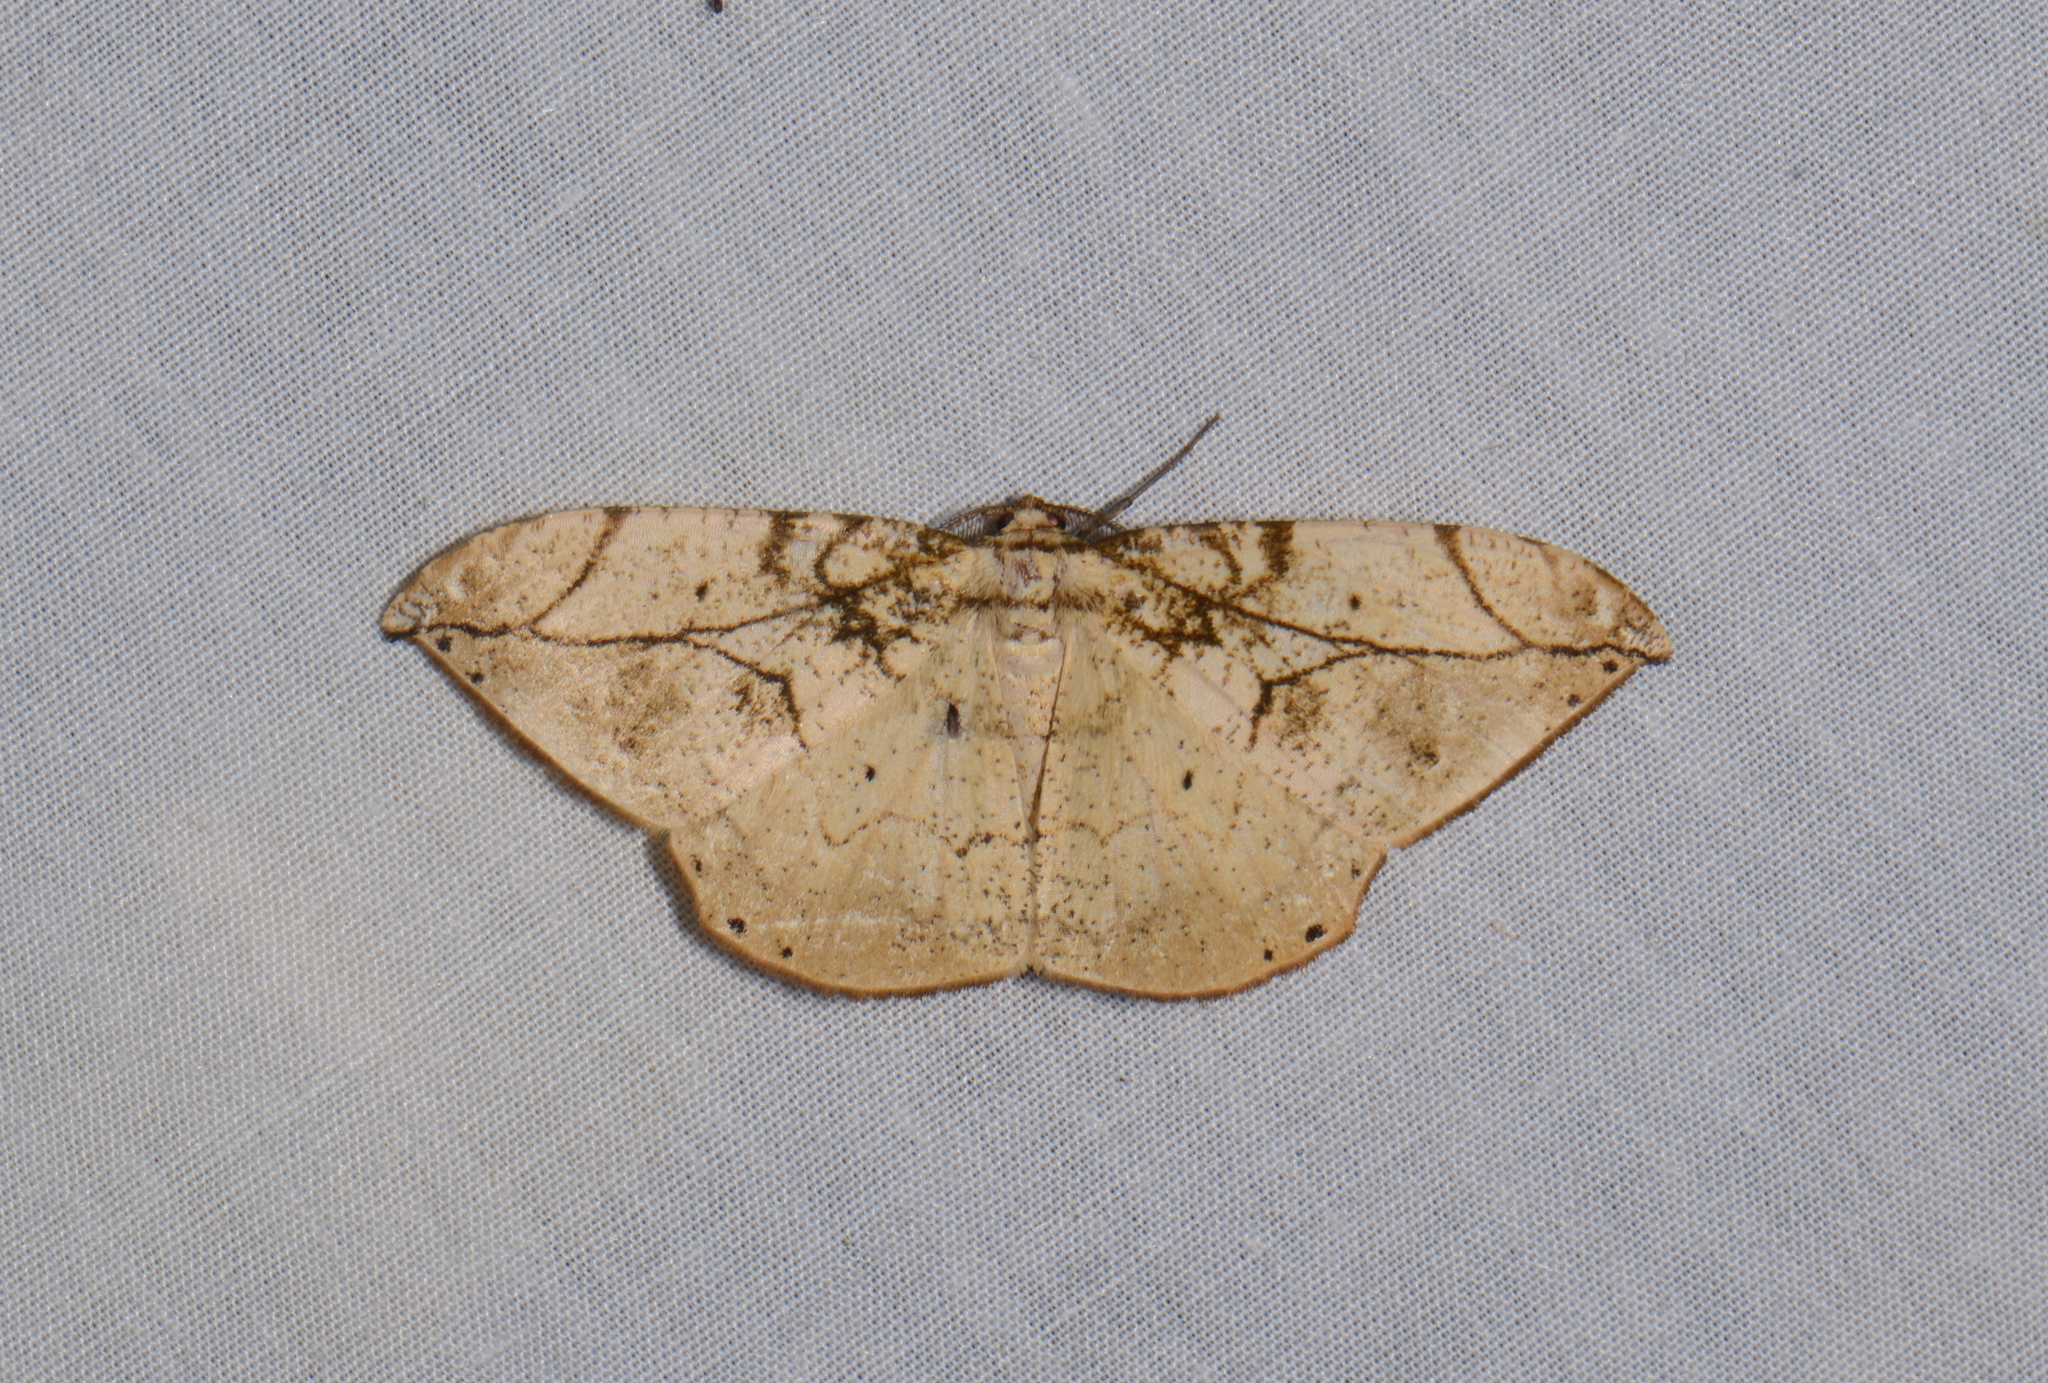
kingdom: Animalia
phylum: Arthropoda
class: Insecta
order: Lepidoptera
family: Geometridae
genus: Dalima
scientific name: Dalima delineata
